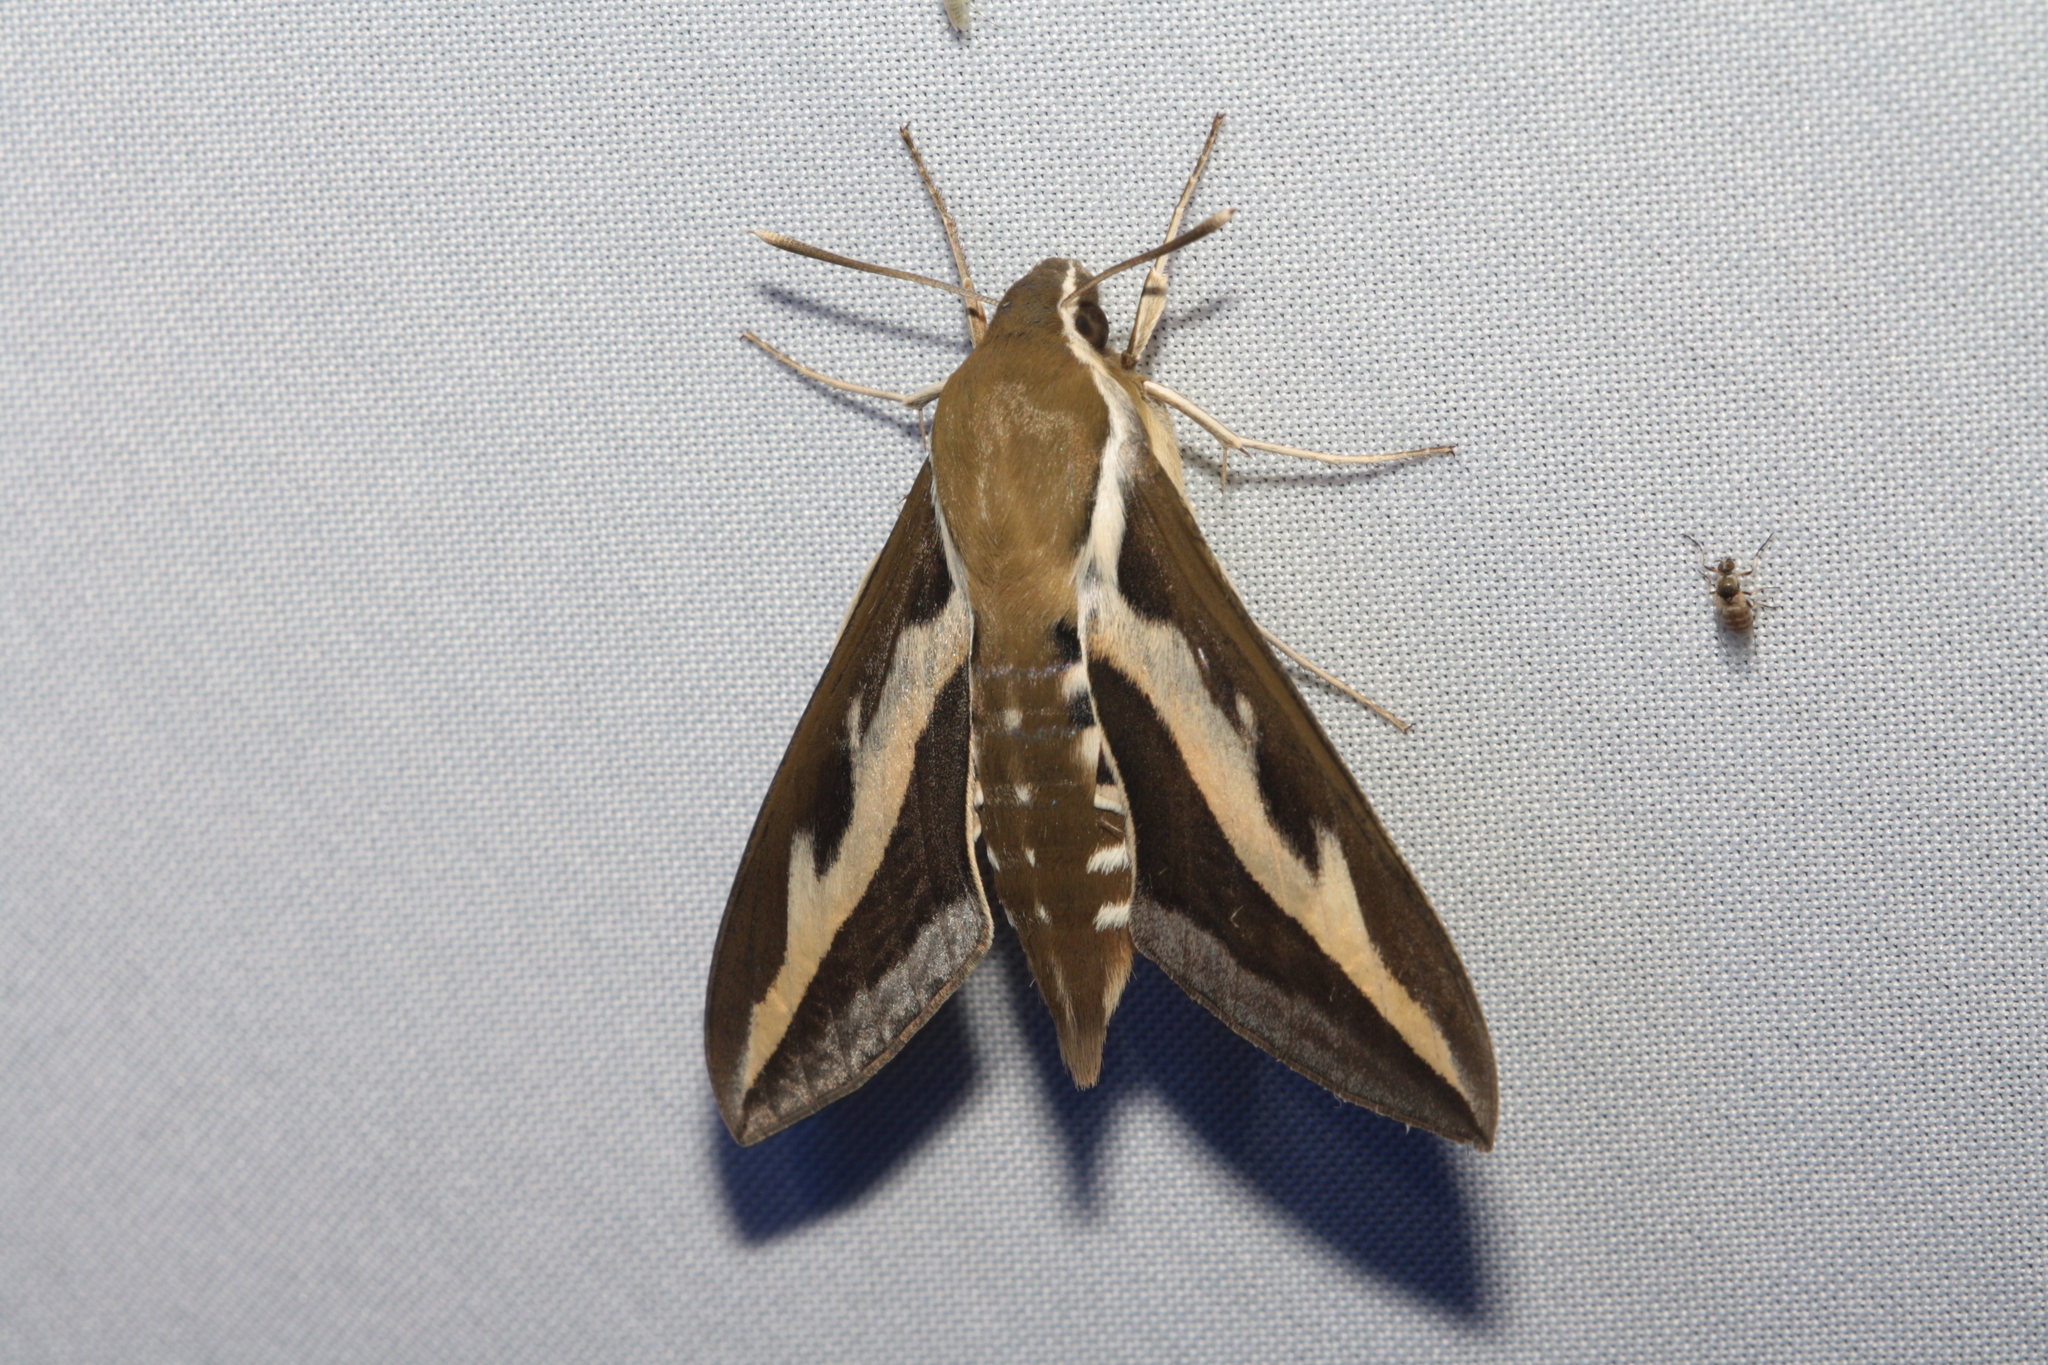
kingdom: Animalia
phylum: Arthropoda
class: Insecta
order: Lepidoptera
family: Sphingidae
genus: Hyles
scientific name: Hyles gallii
